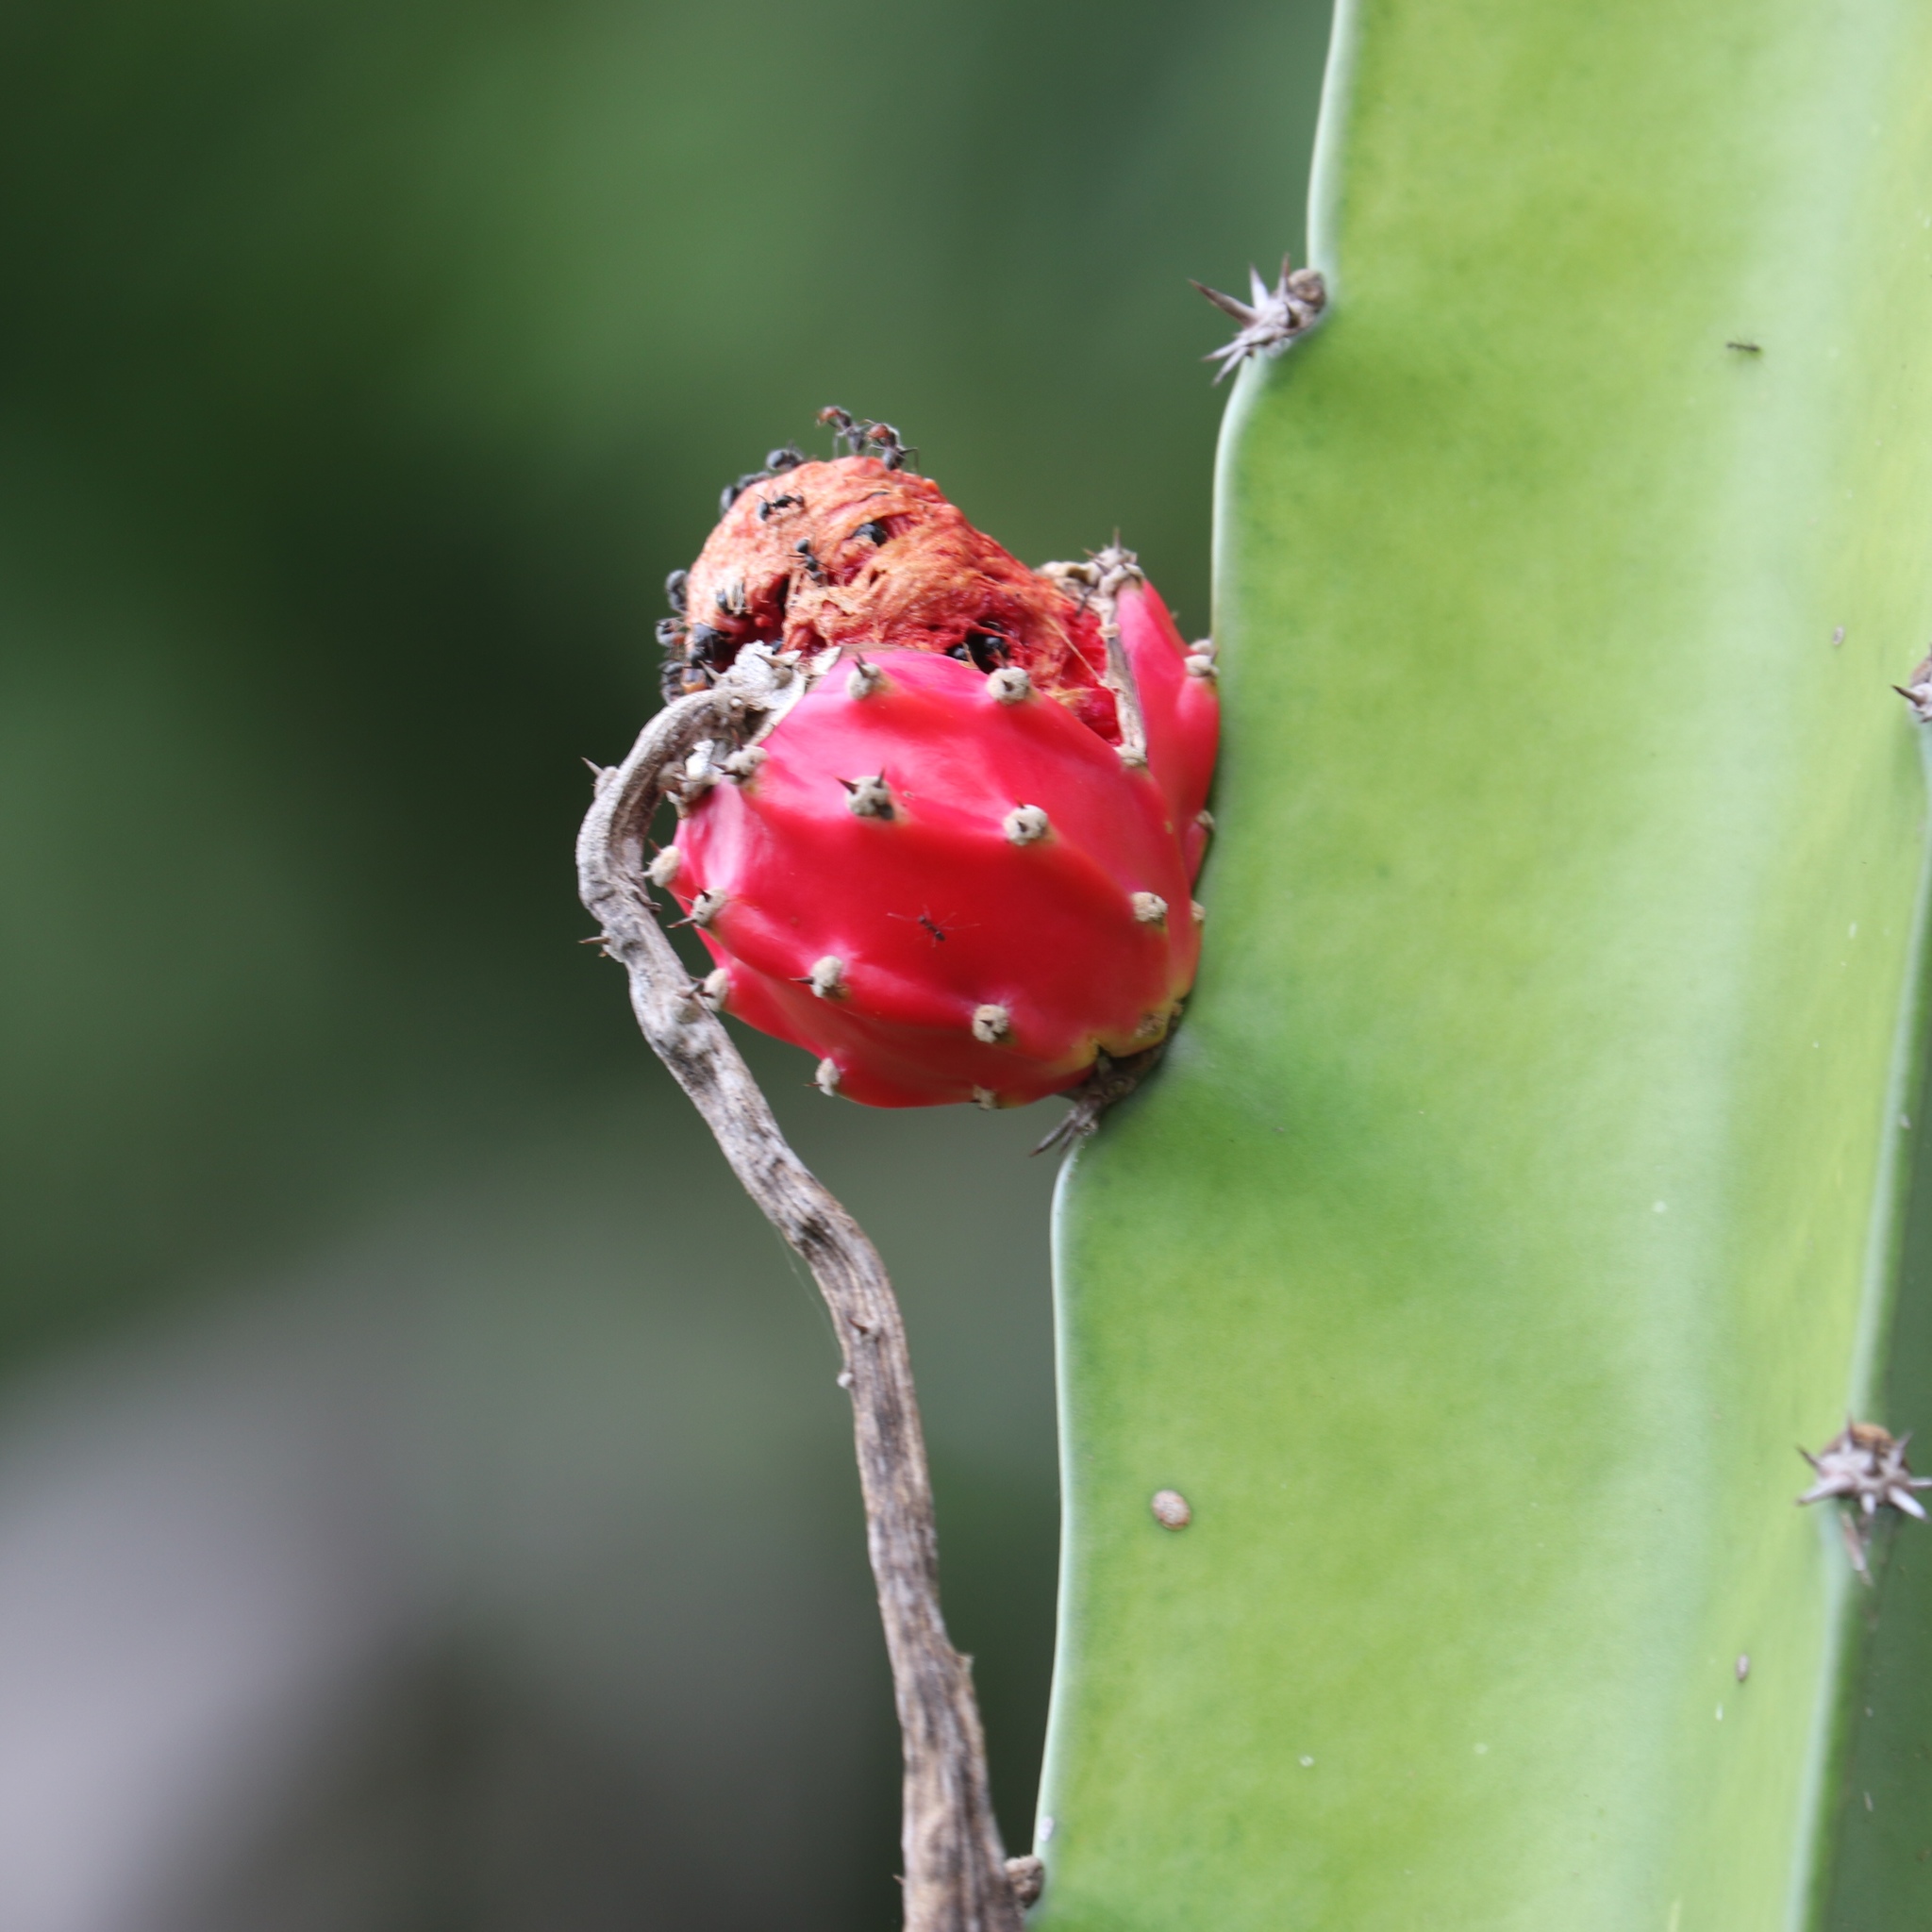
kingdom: Plantae
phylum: Tracheophyta
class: Magnoliopsida
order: Caryophyllales
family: Cactaceae
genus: Acanthocereus
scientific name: Acanthocereus tetragonus
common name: Triangle cactus
